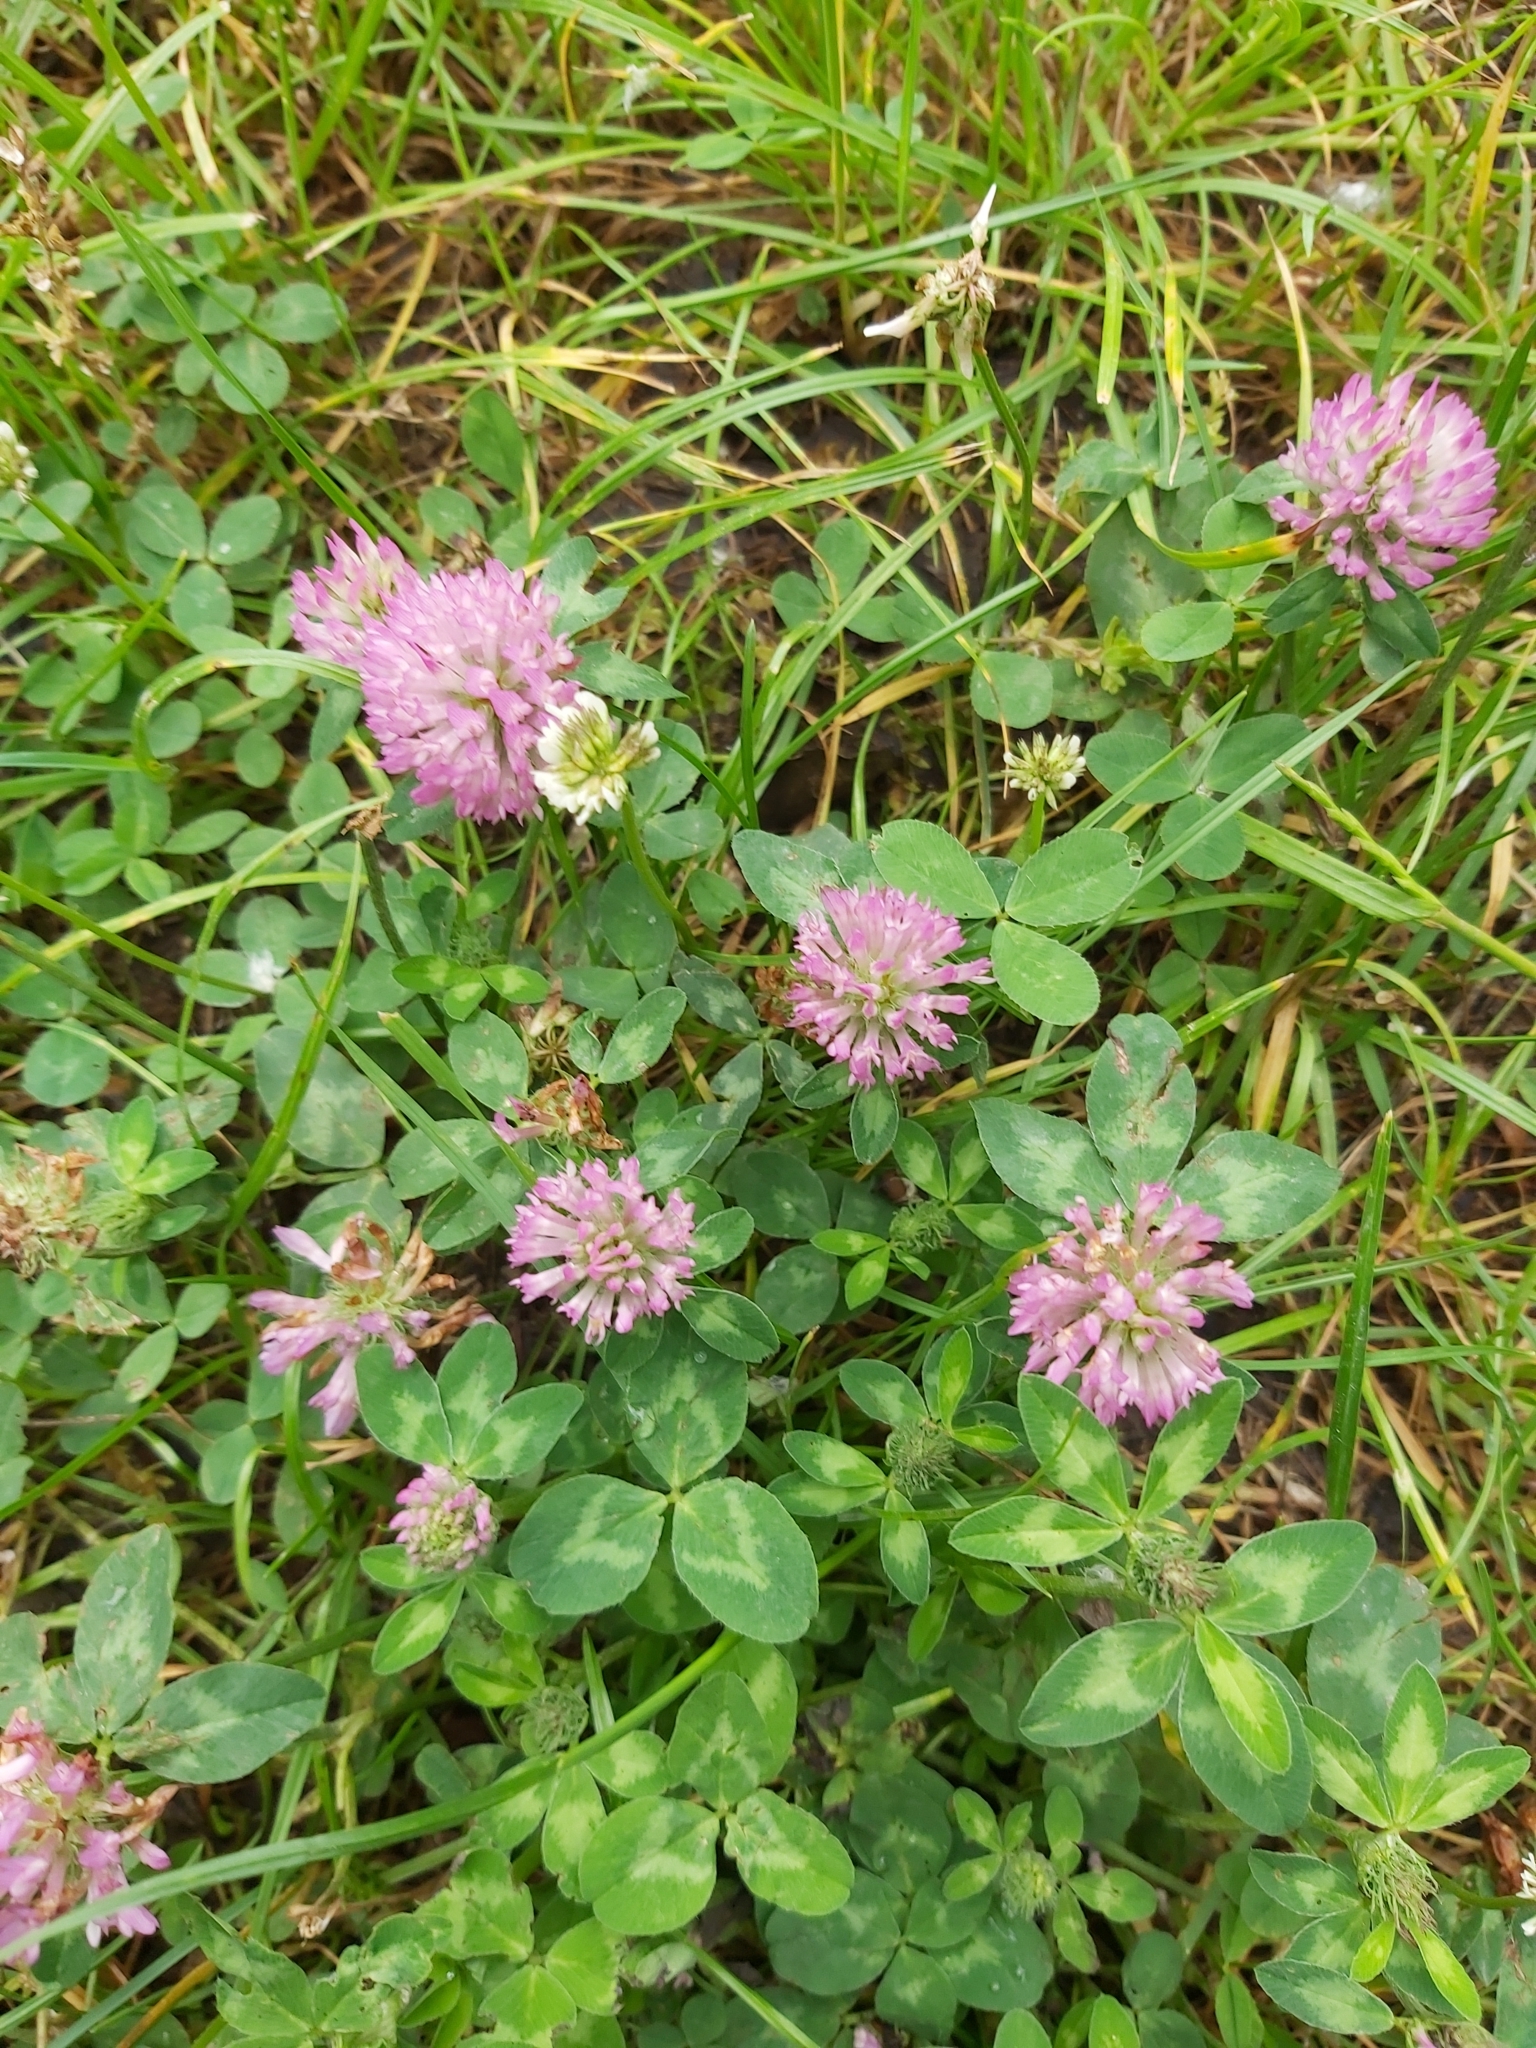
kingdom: Plantae
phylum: Tracheophyta
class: Magnoliopsida
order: Fabales
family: Fabaceae
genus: Trifolium
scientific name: Trifolium pratense
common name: Red clover
